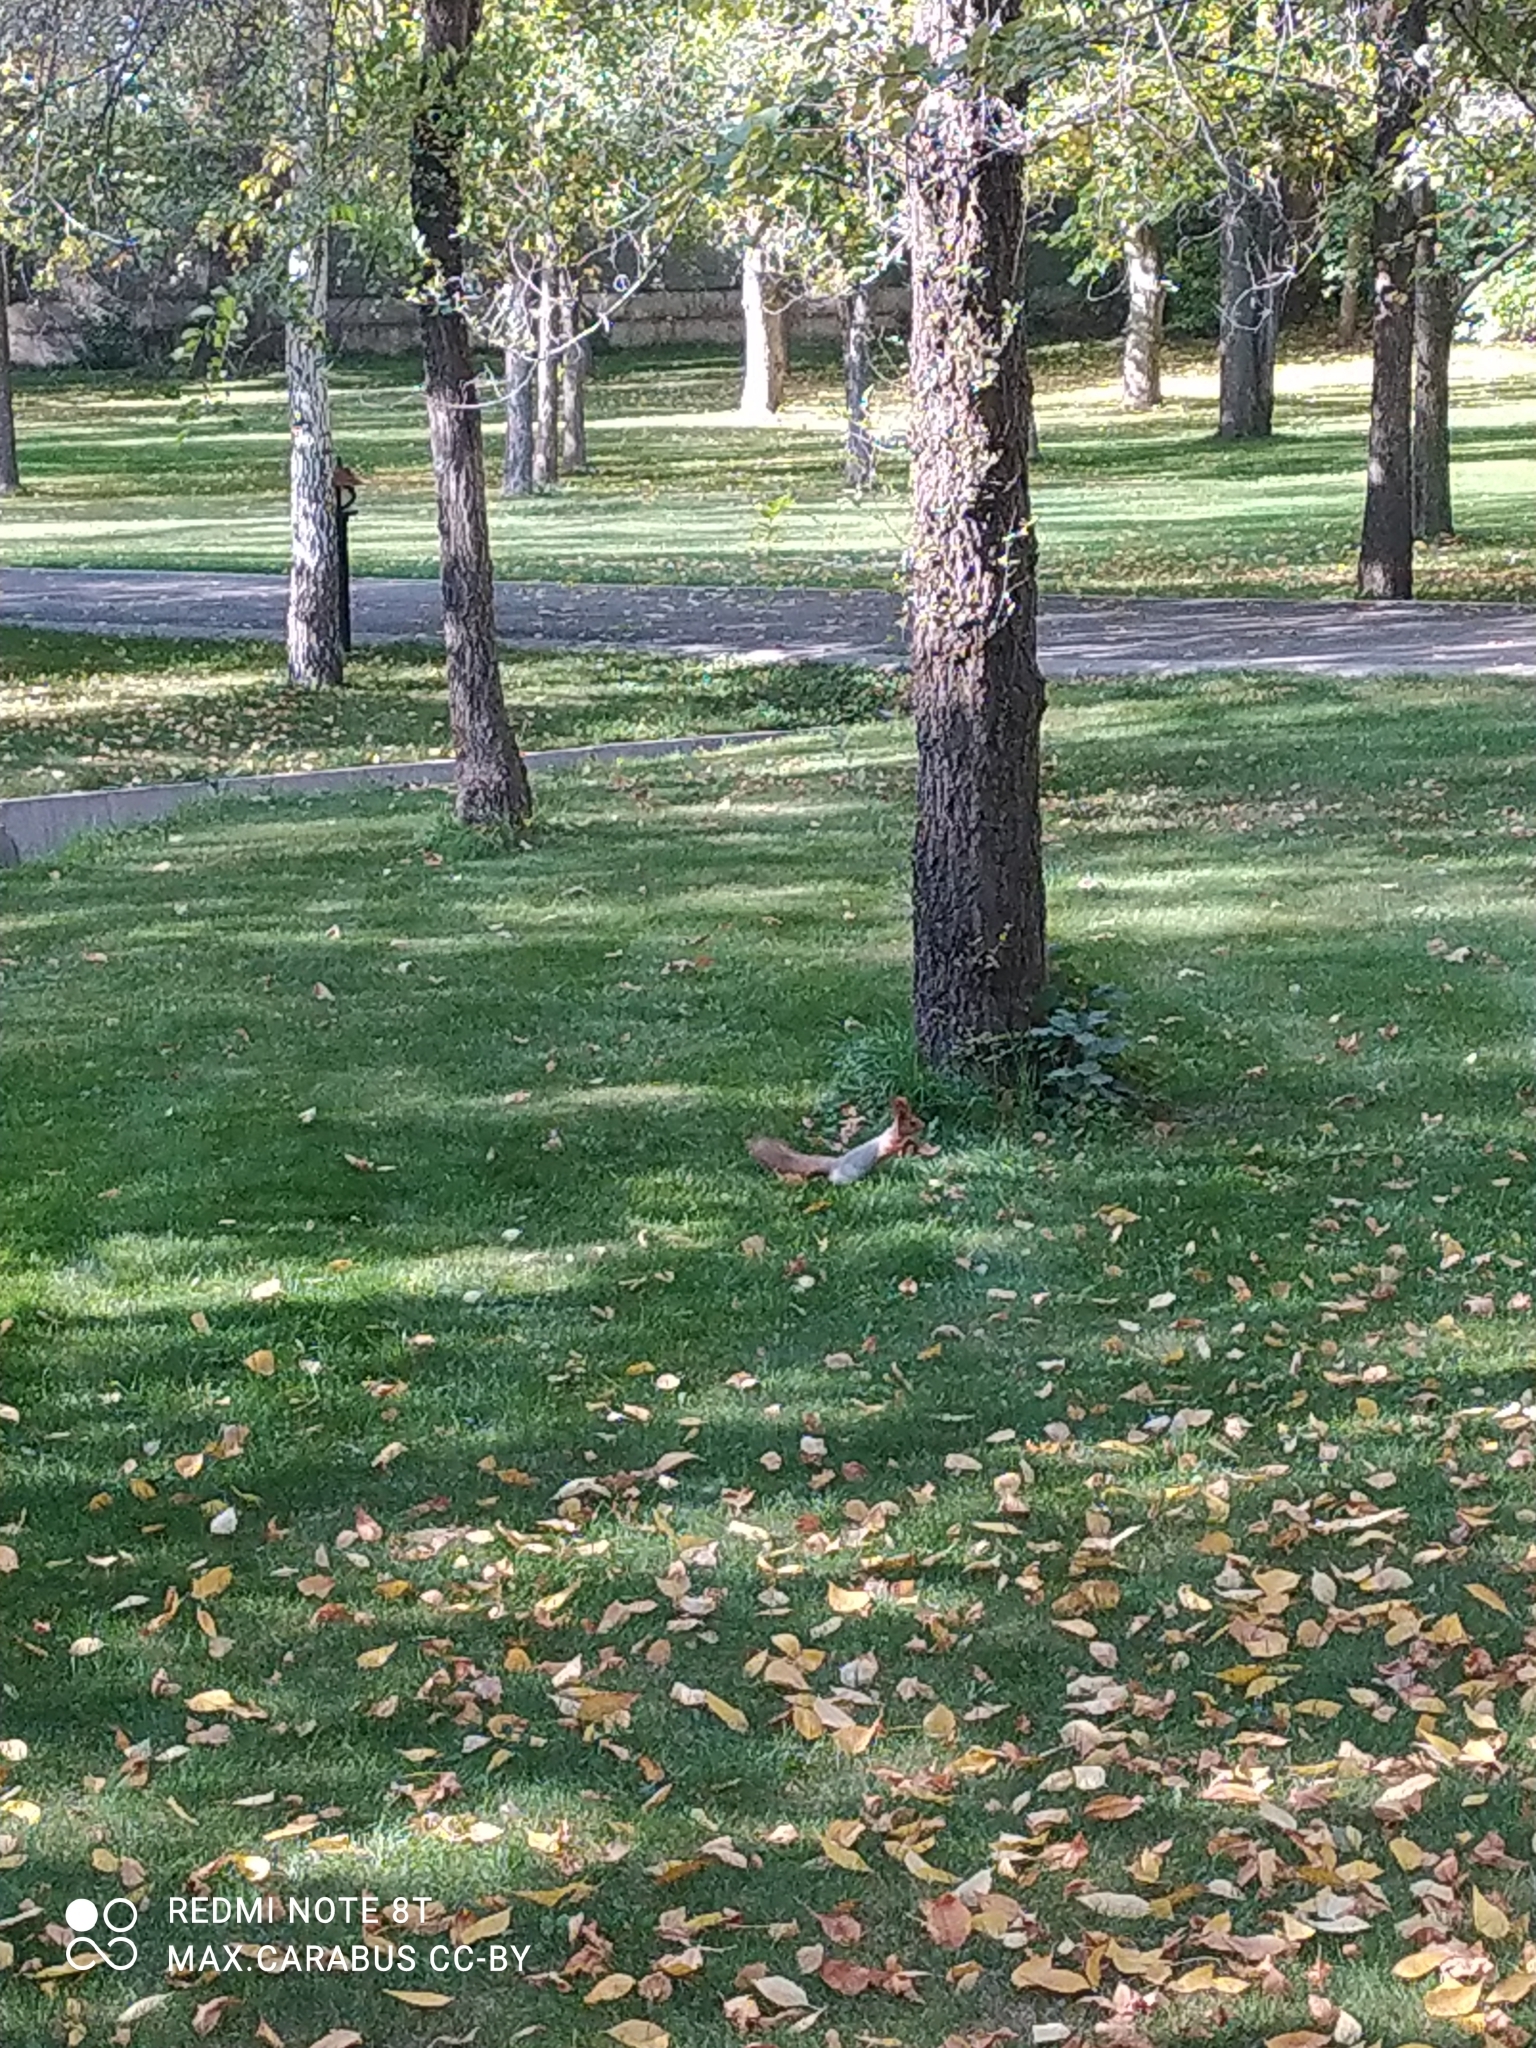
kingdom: Animalia
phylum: Chordata
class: Mammalia
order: Rodentia
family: Sciuridae
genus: Sciurus
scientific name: Sciurus vulgaris
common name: Eurasian red squirrel
